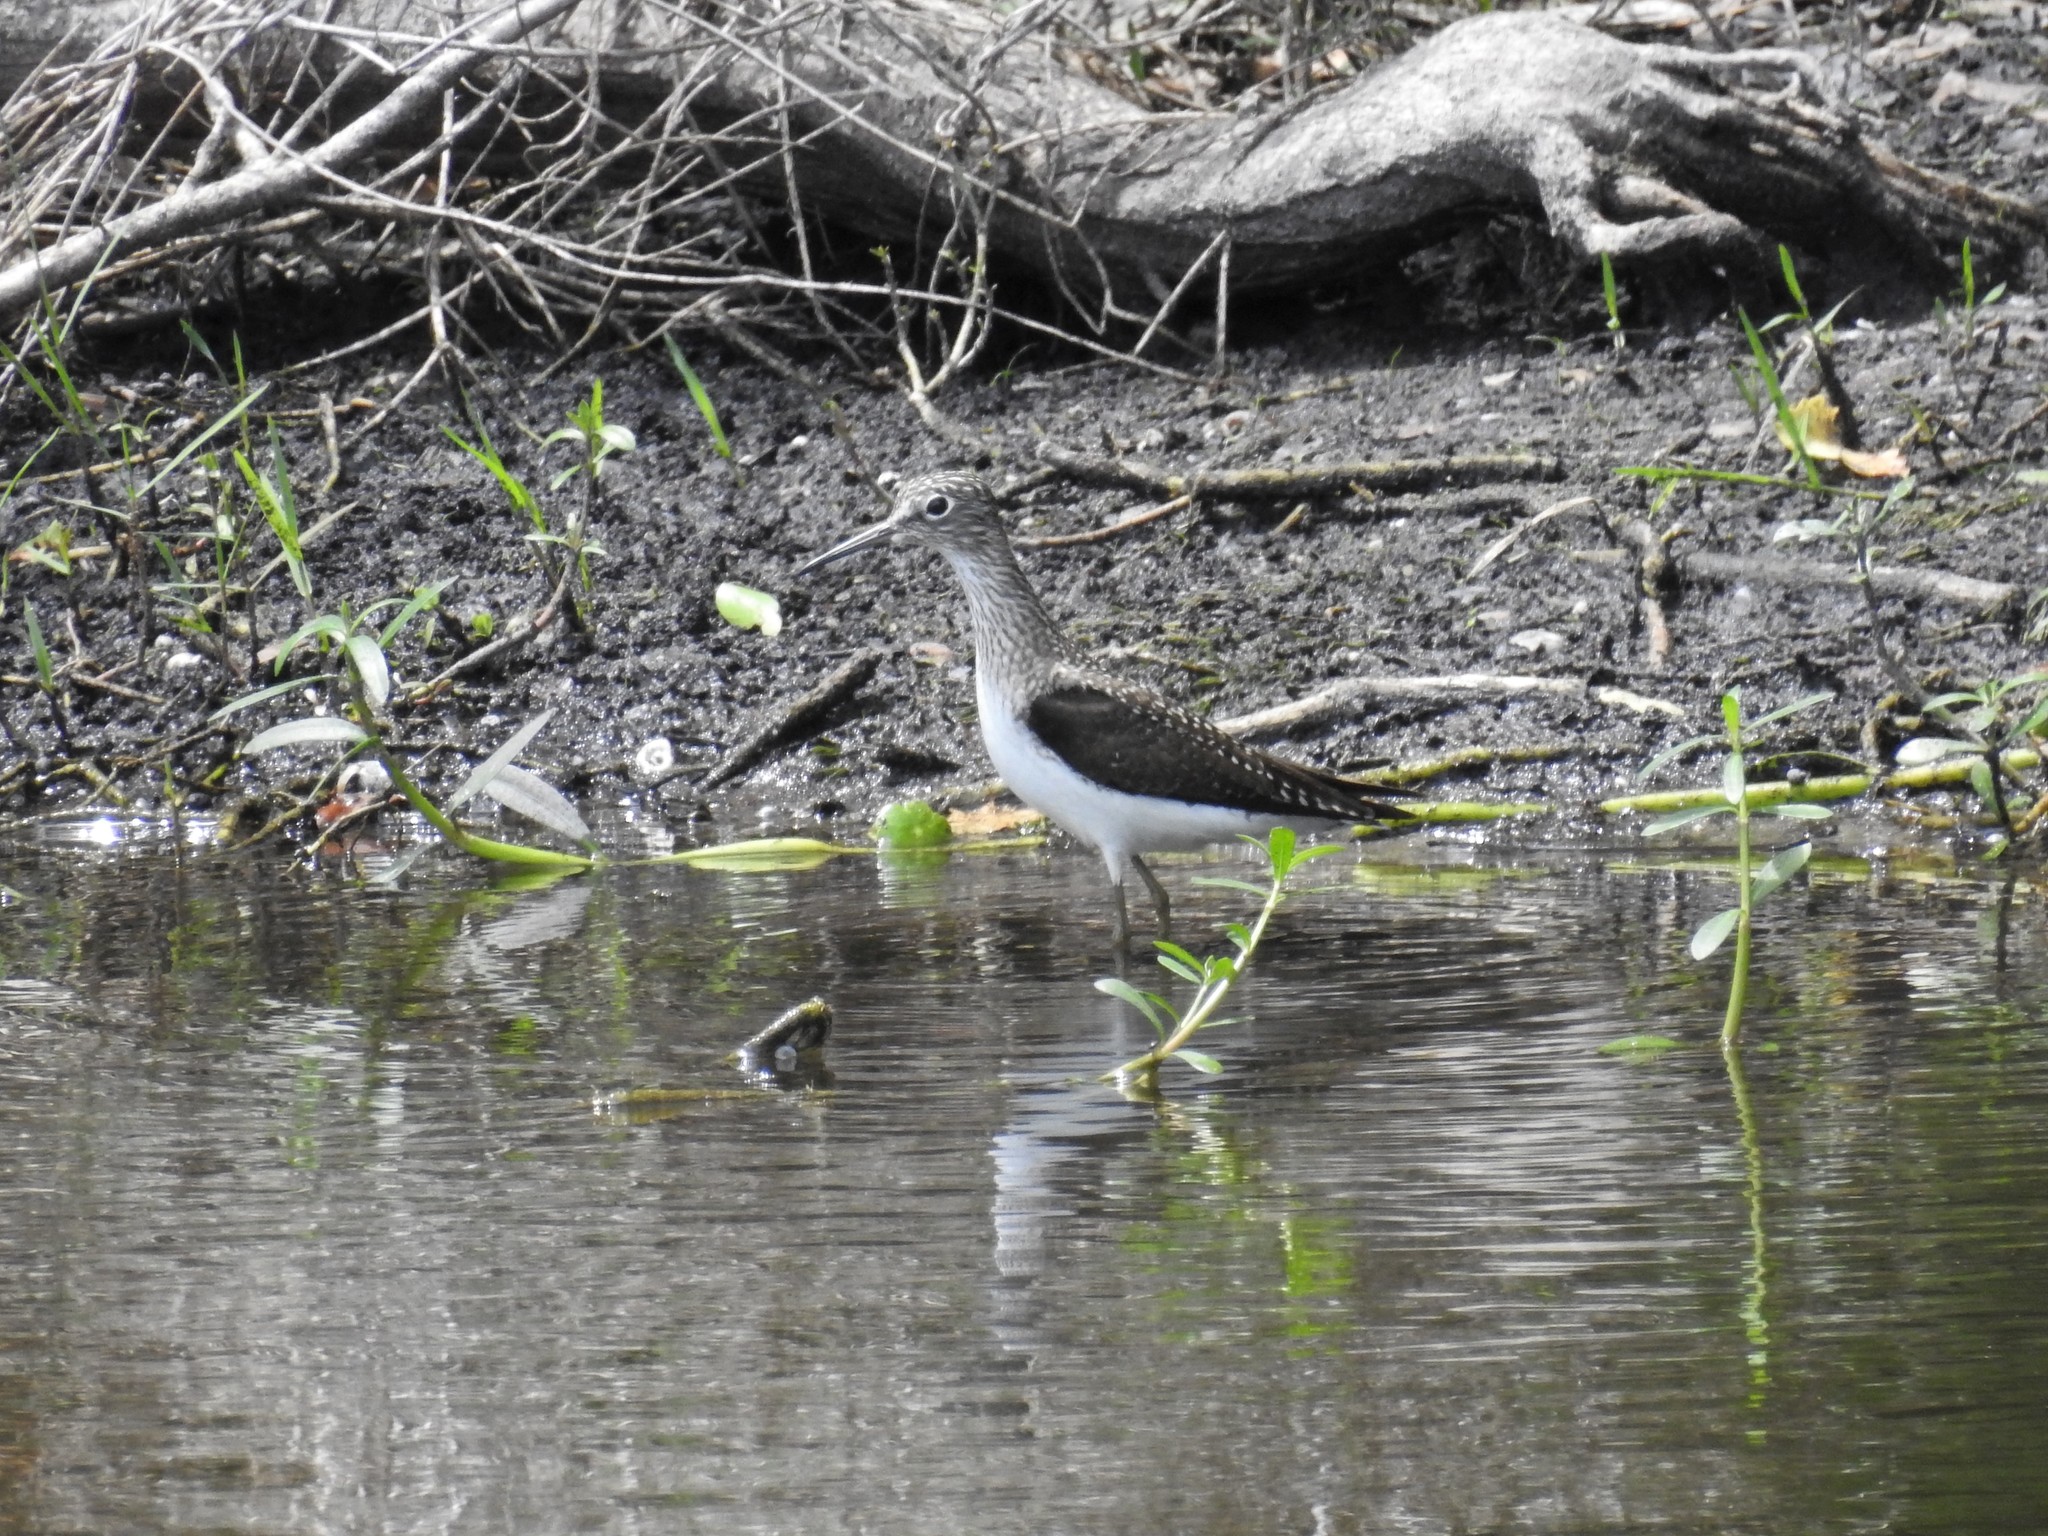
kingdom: Animalia
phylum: Chordata
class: Aves
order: Charadriiformes
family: Scolopacidae
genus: Tringa
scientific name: Tringa solitaria
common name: Solitary sandpiper
